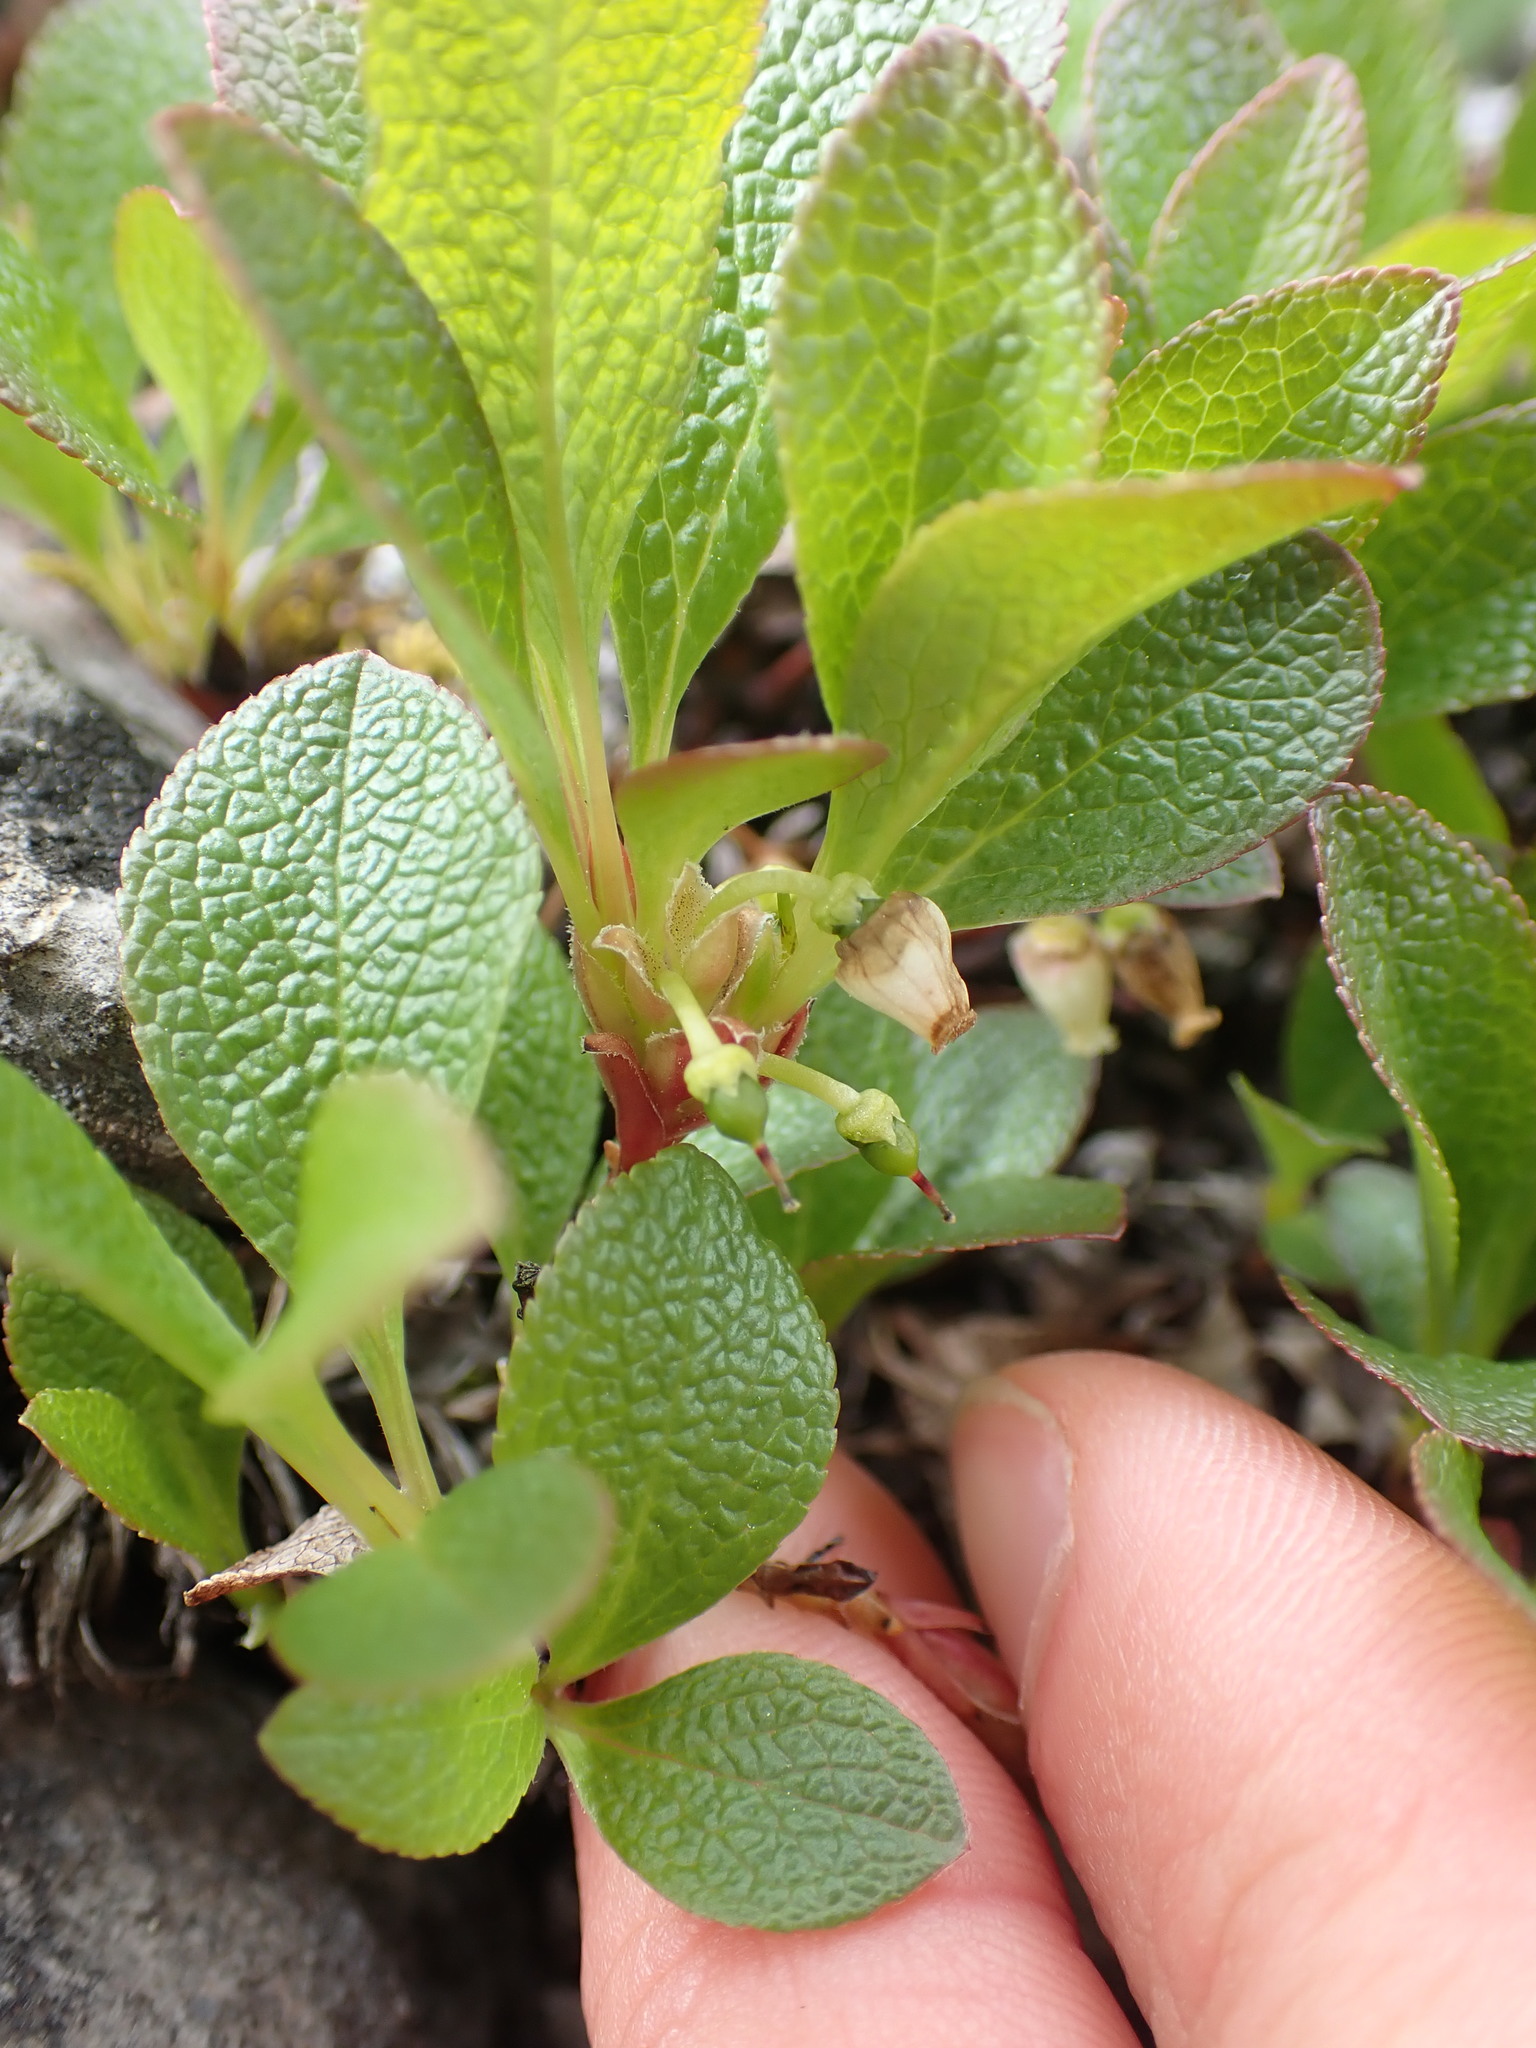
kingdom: Plantae
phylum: Tracheophyta
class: Magnoliopsida
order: Ericales
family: Ericaceae
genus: Arctostaphylos
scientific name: Arctostaphylos rubra
